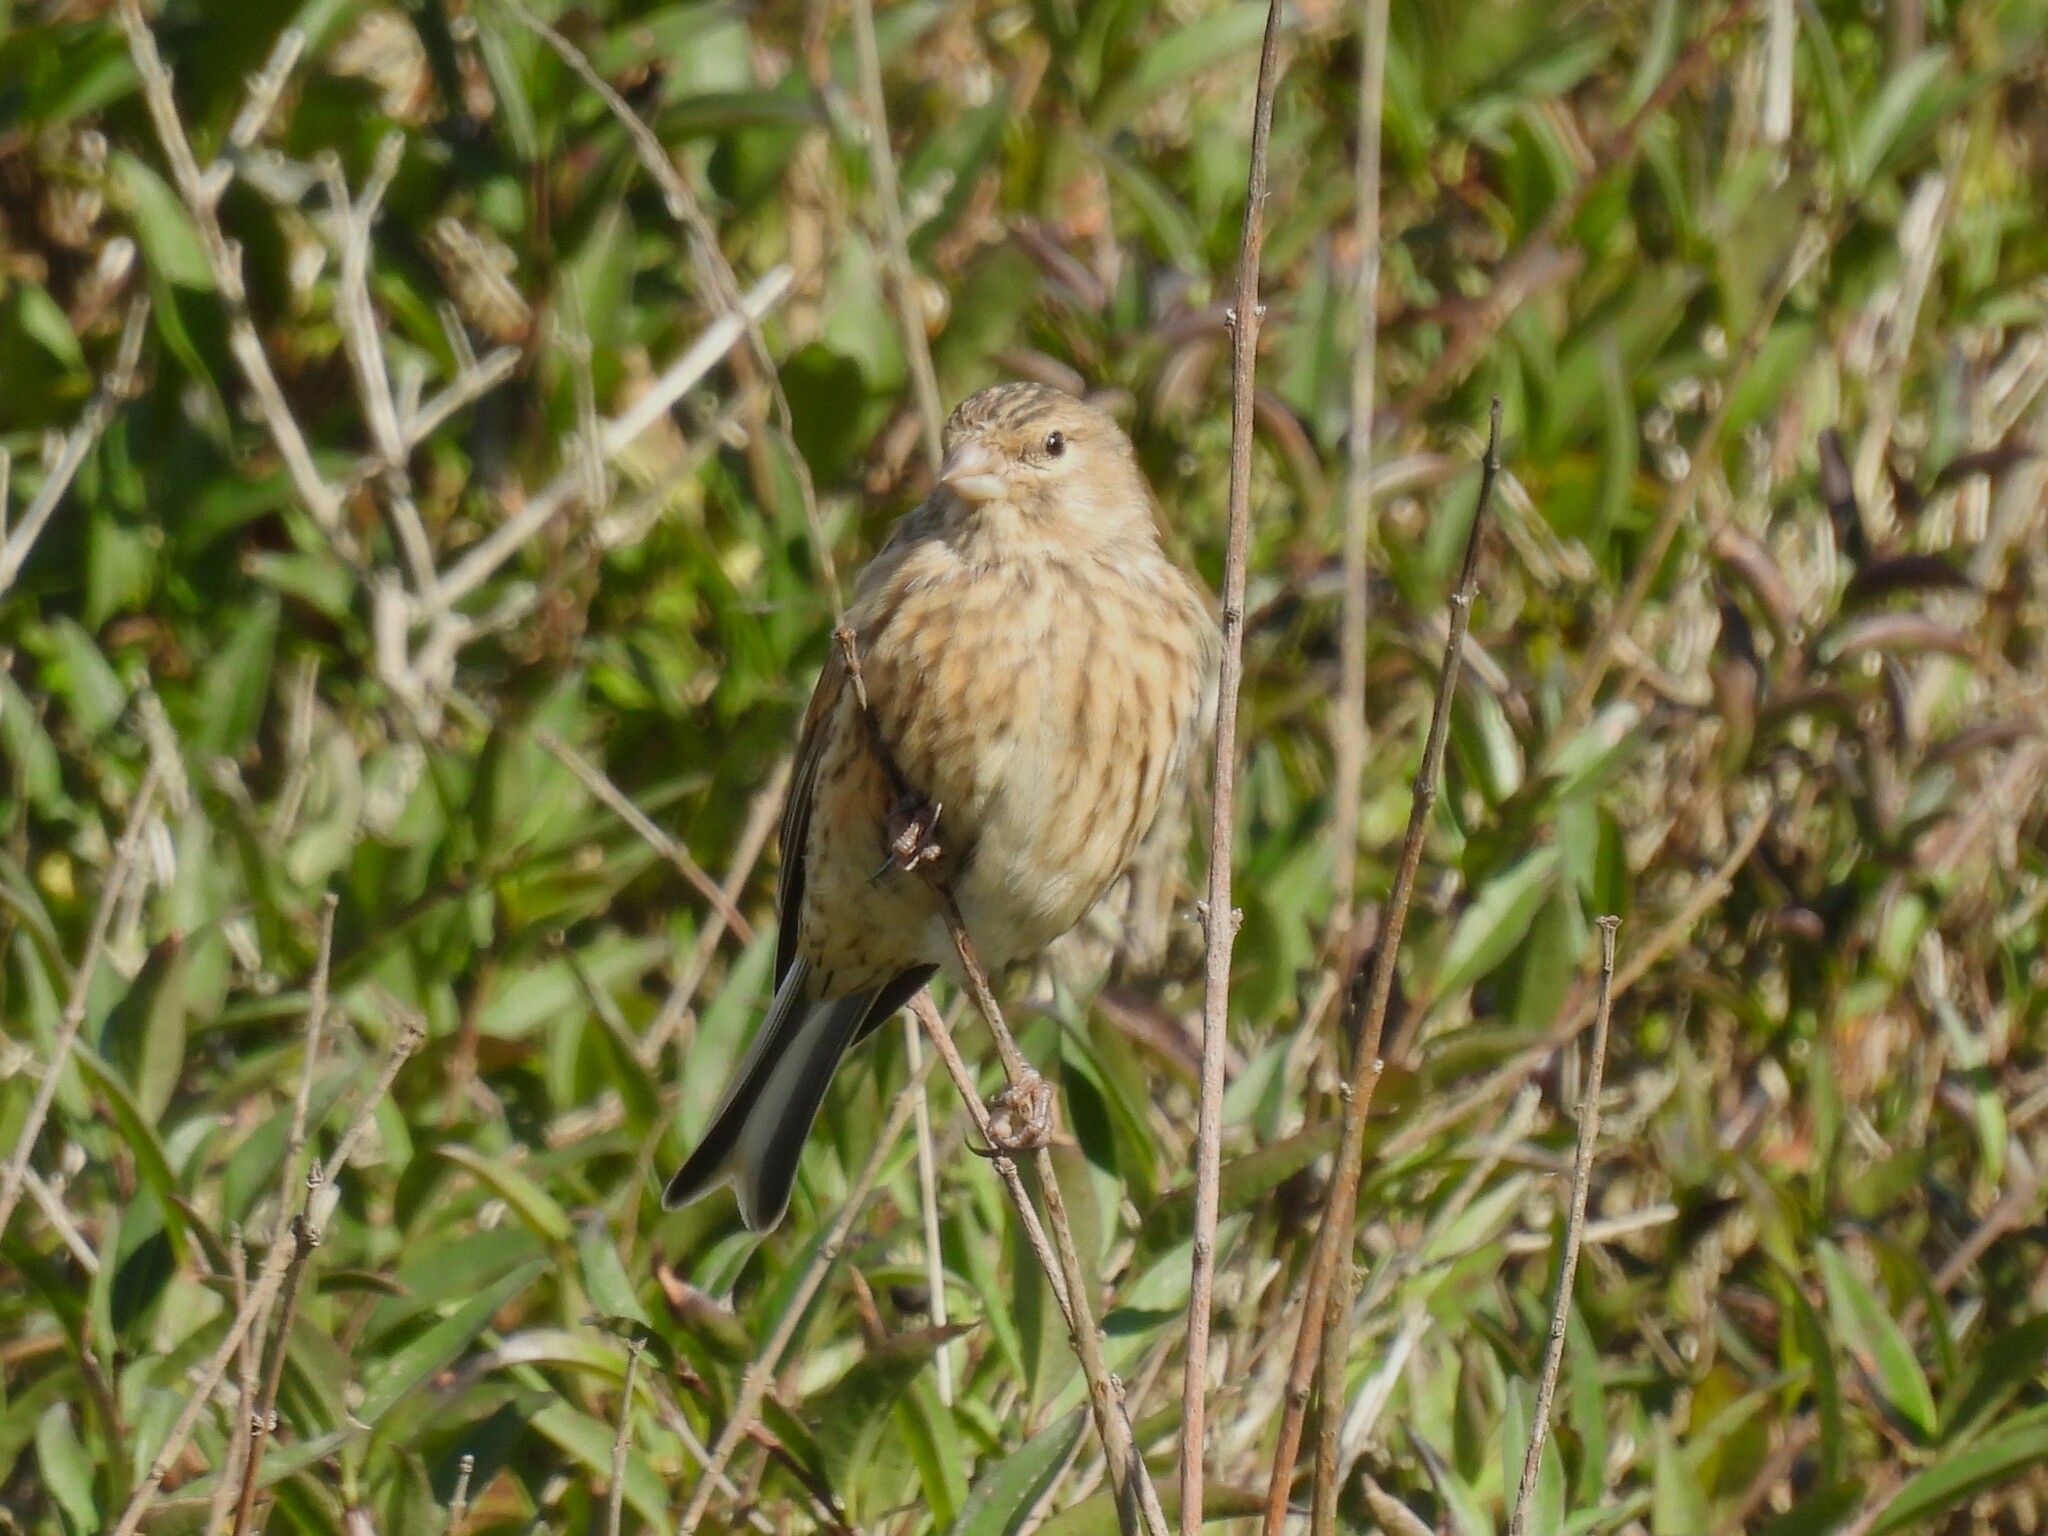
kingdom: Animalia
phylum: Chordata
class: Aves
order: Passeriformes
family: Fringillidae
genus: Linaria
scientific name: Linaria cannabina
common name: Common linnet
